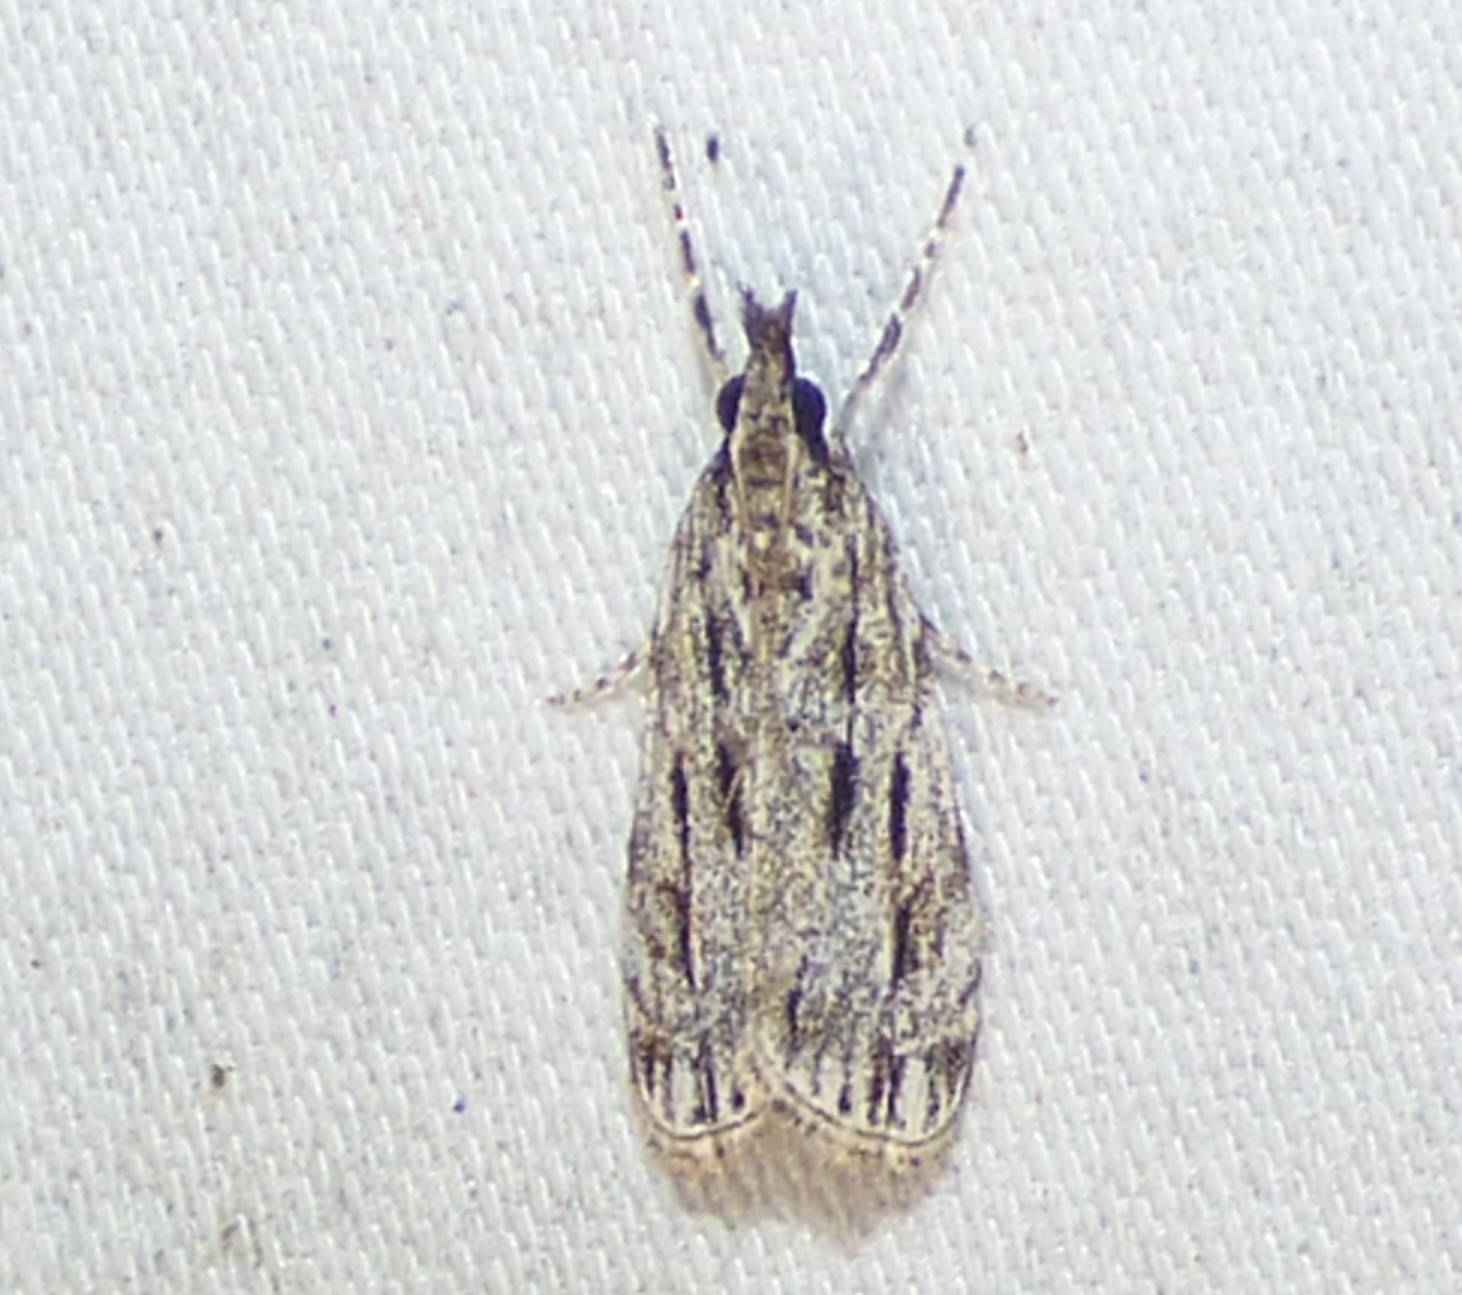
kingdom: Animalia
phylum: Arthropoda
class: Insecta
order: Lepidoptera
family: Crambidae
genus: Eudonia
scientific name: Eudonia strigalis
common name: Striped eudonia moth
